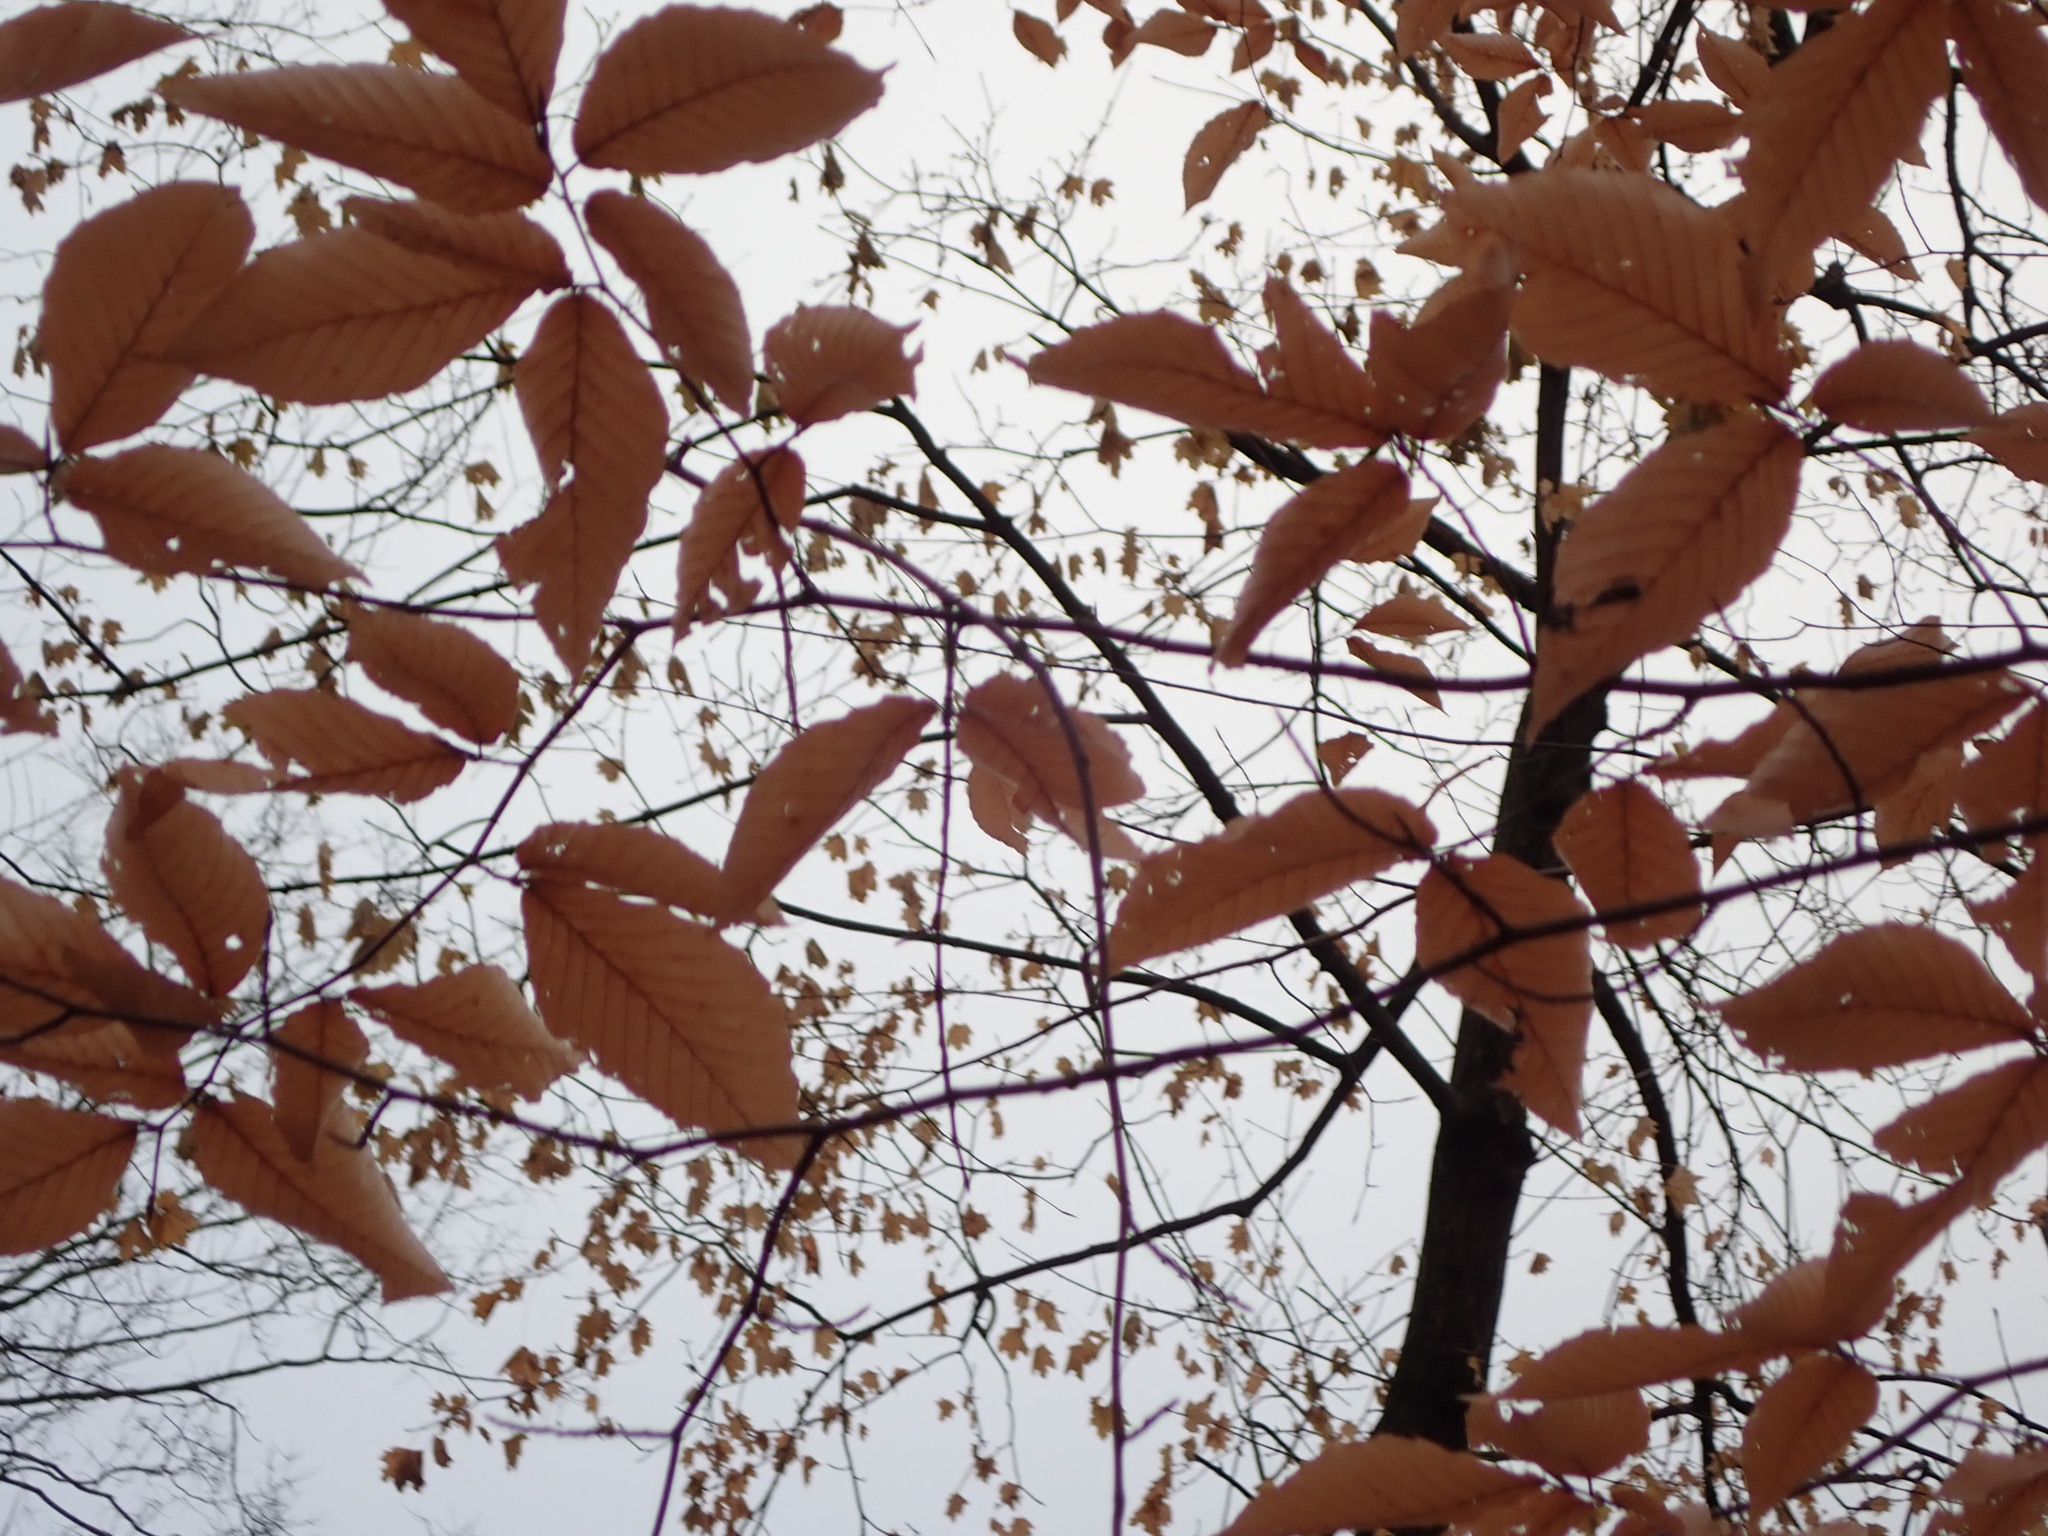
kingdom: Plantae
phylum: Tracheophyta
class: Magnoliopsida
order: Fagales
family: Fagaceae
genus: Fagus
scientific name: Fagus grandifolia
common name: American beech
